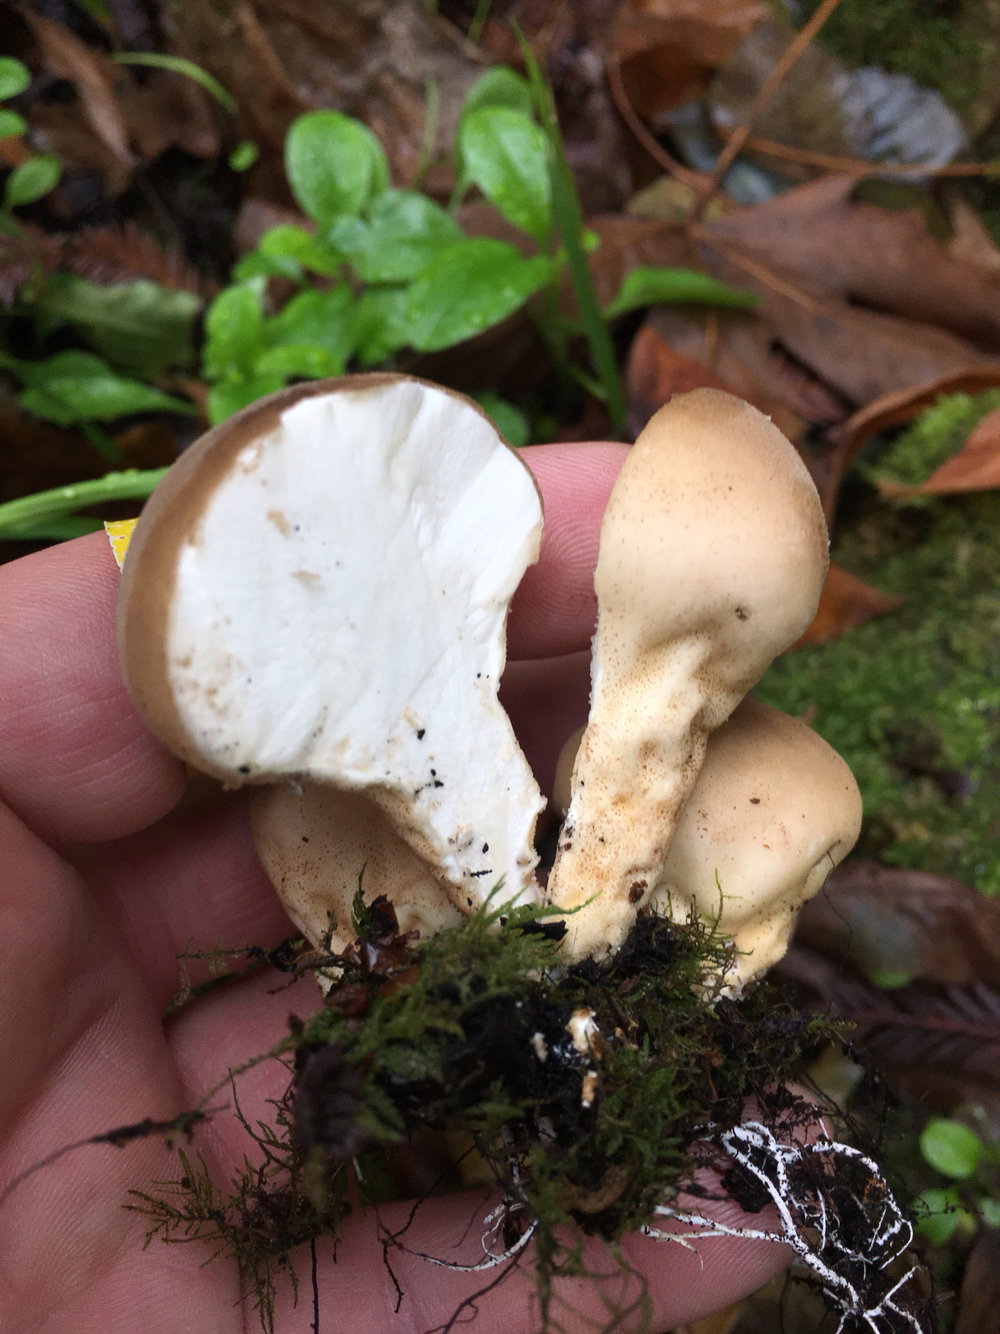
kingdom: Fungi
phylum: Basidiomycota
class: Agaricomycetes
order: Agaricales
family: Lycoperdaceae
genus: Apioperdon
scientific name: Apioperdon pyriforme
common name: Pear-shaped puffball
